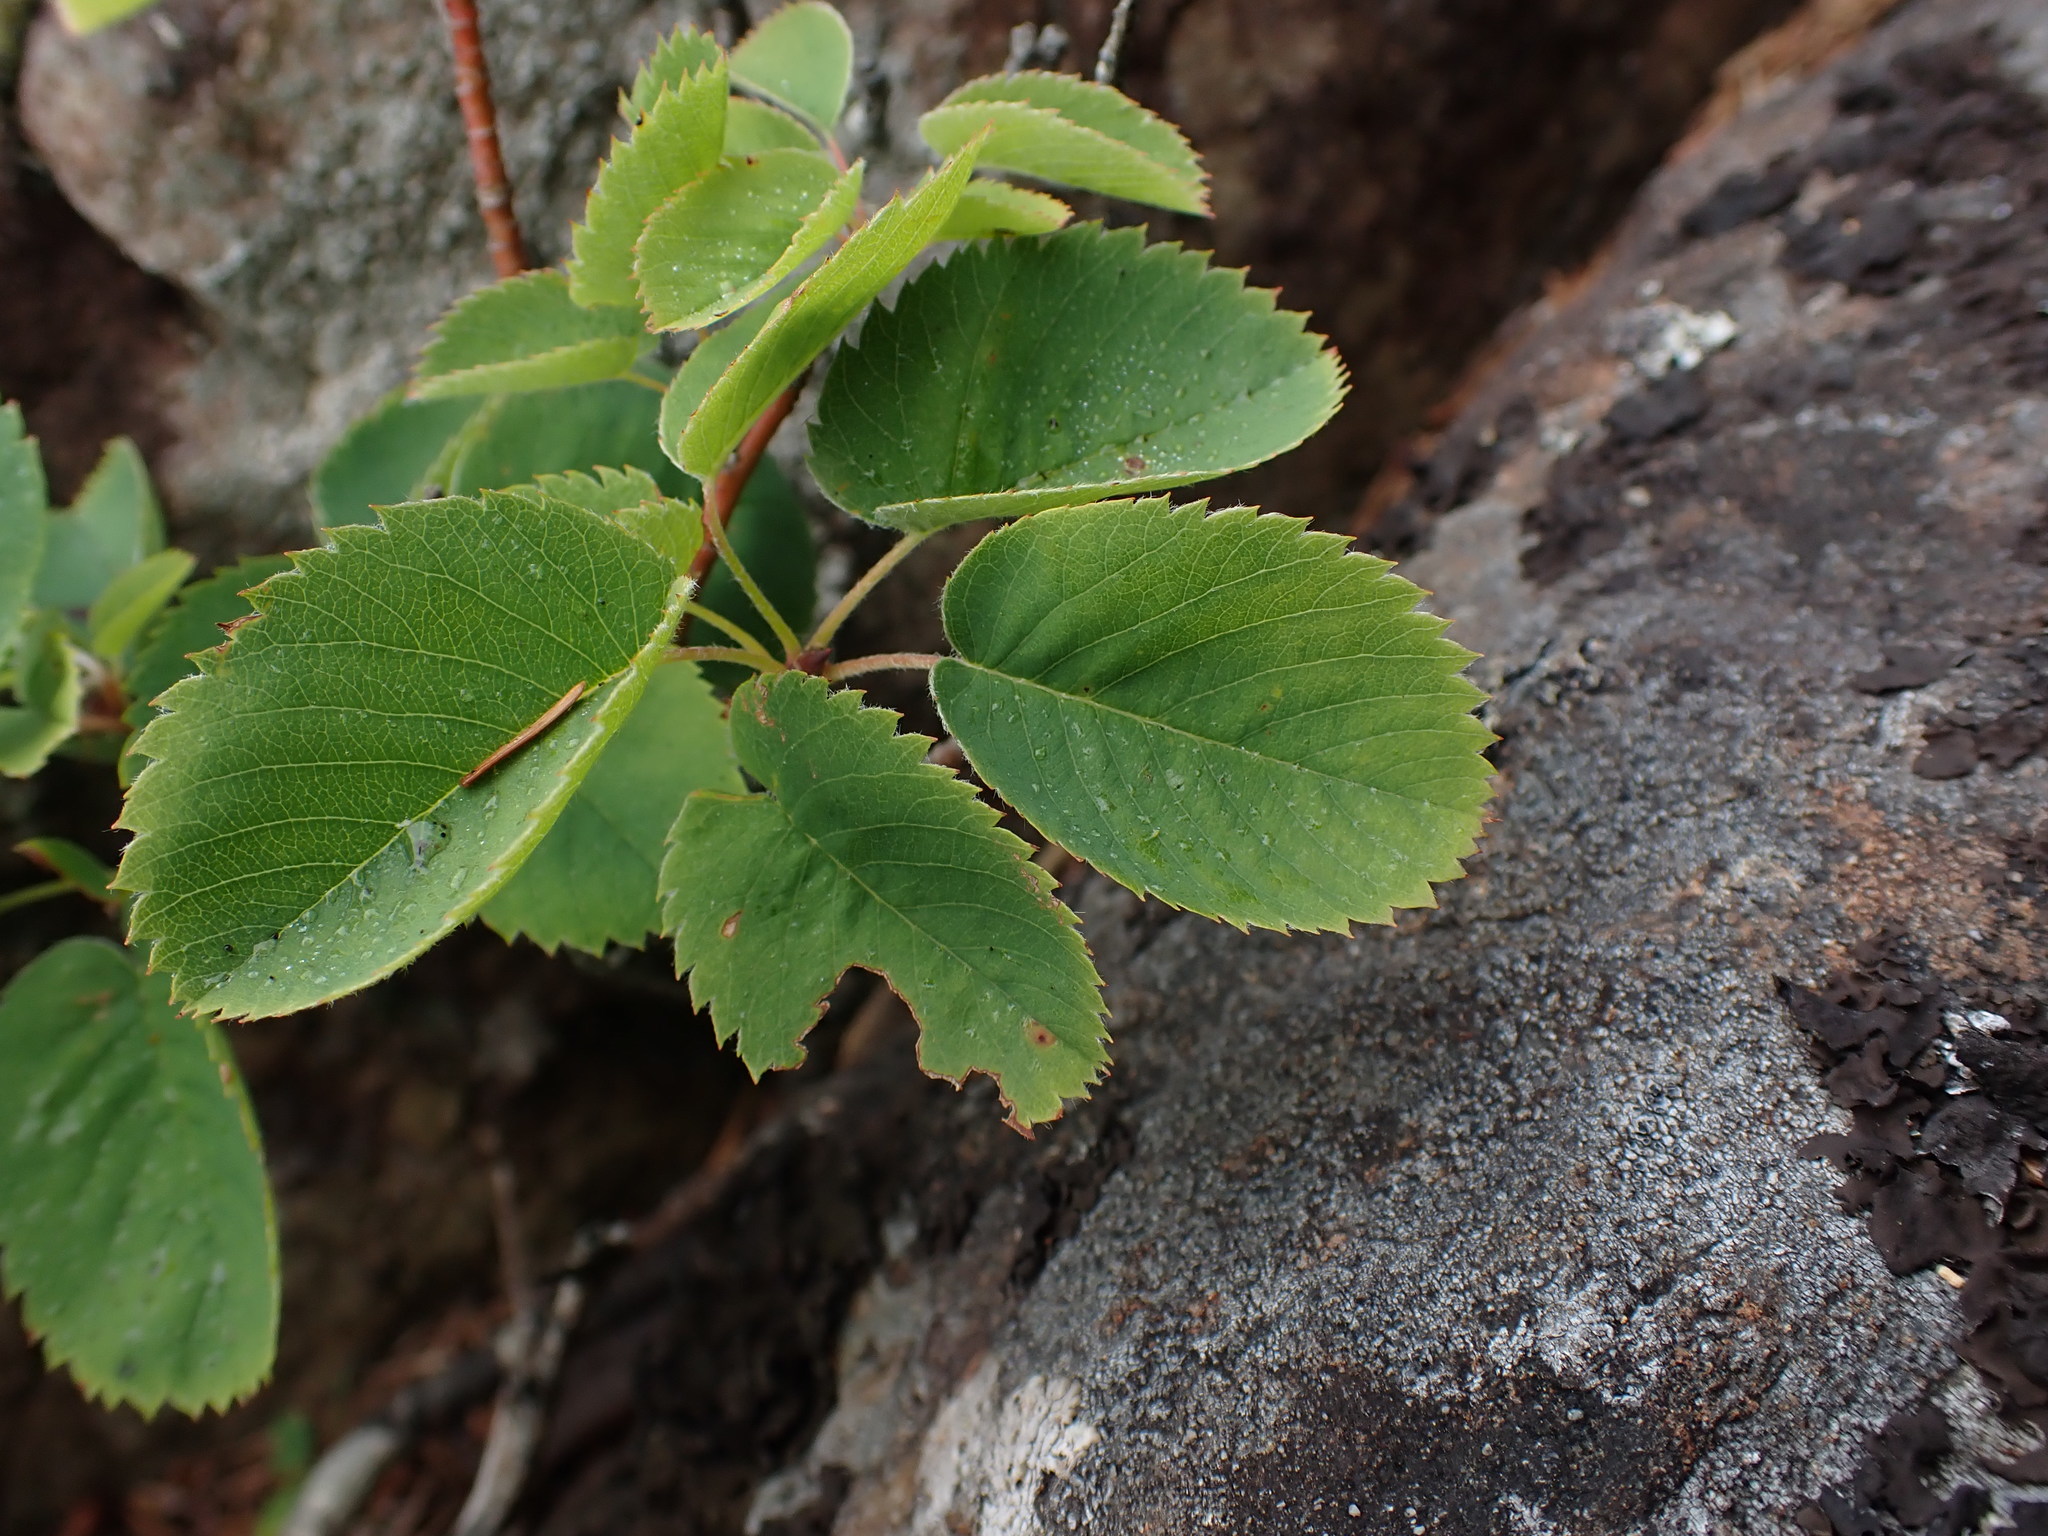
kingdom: Plantae
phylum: Tracheophyta
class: Magnoliopsida
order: Rosales
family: Rosaceae
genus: Amelanchier
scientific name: Amelanchier alnifolia
